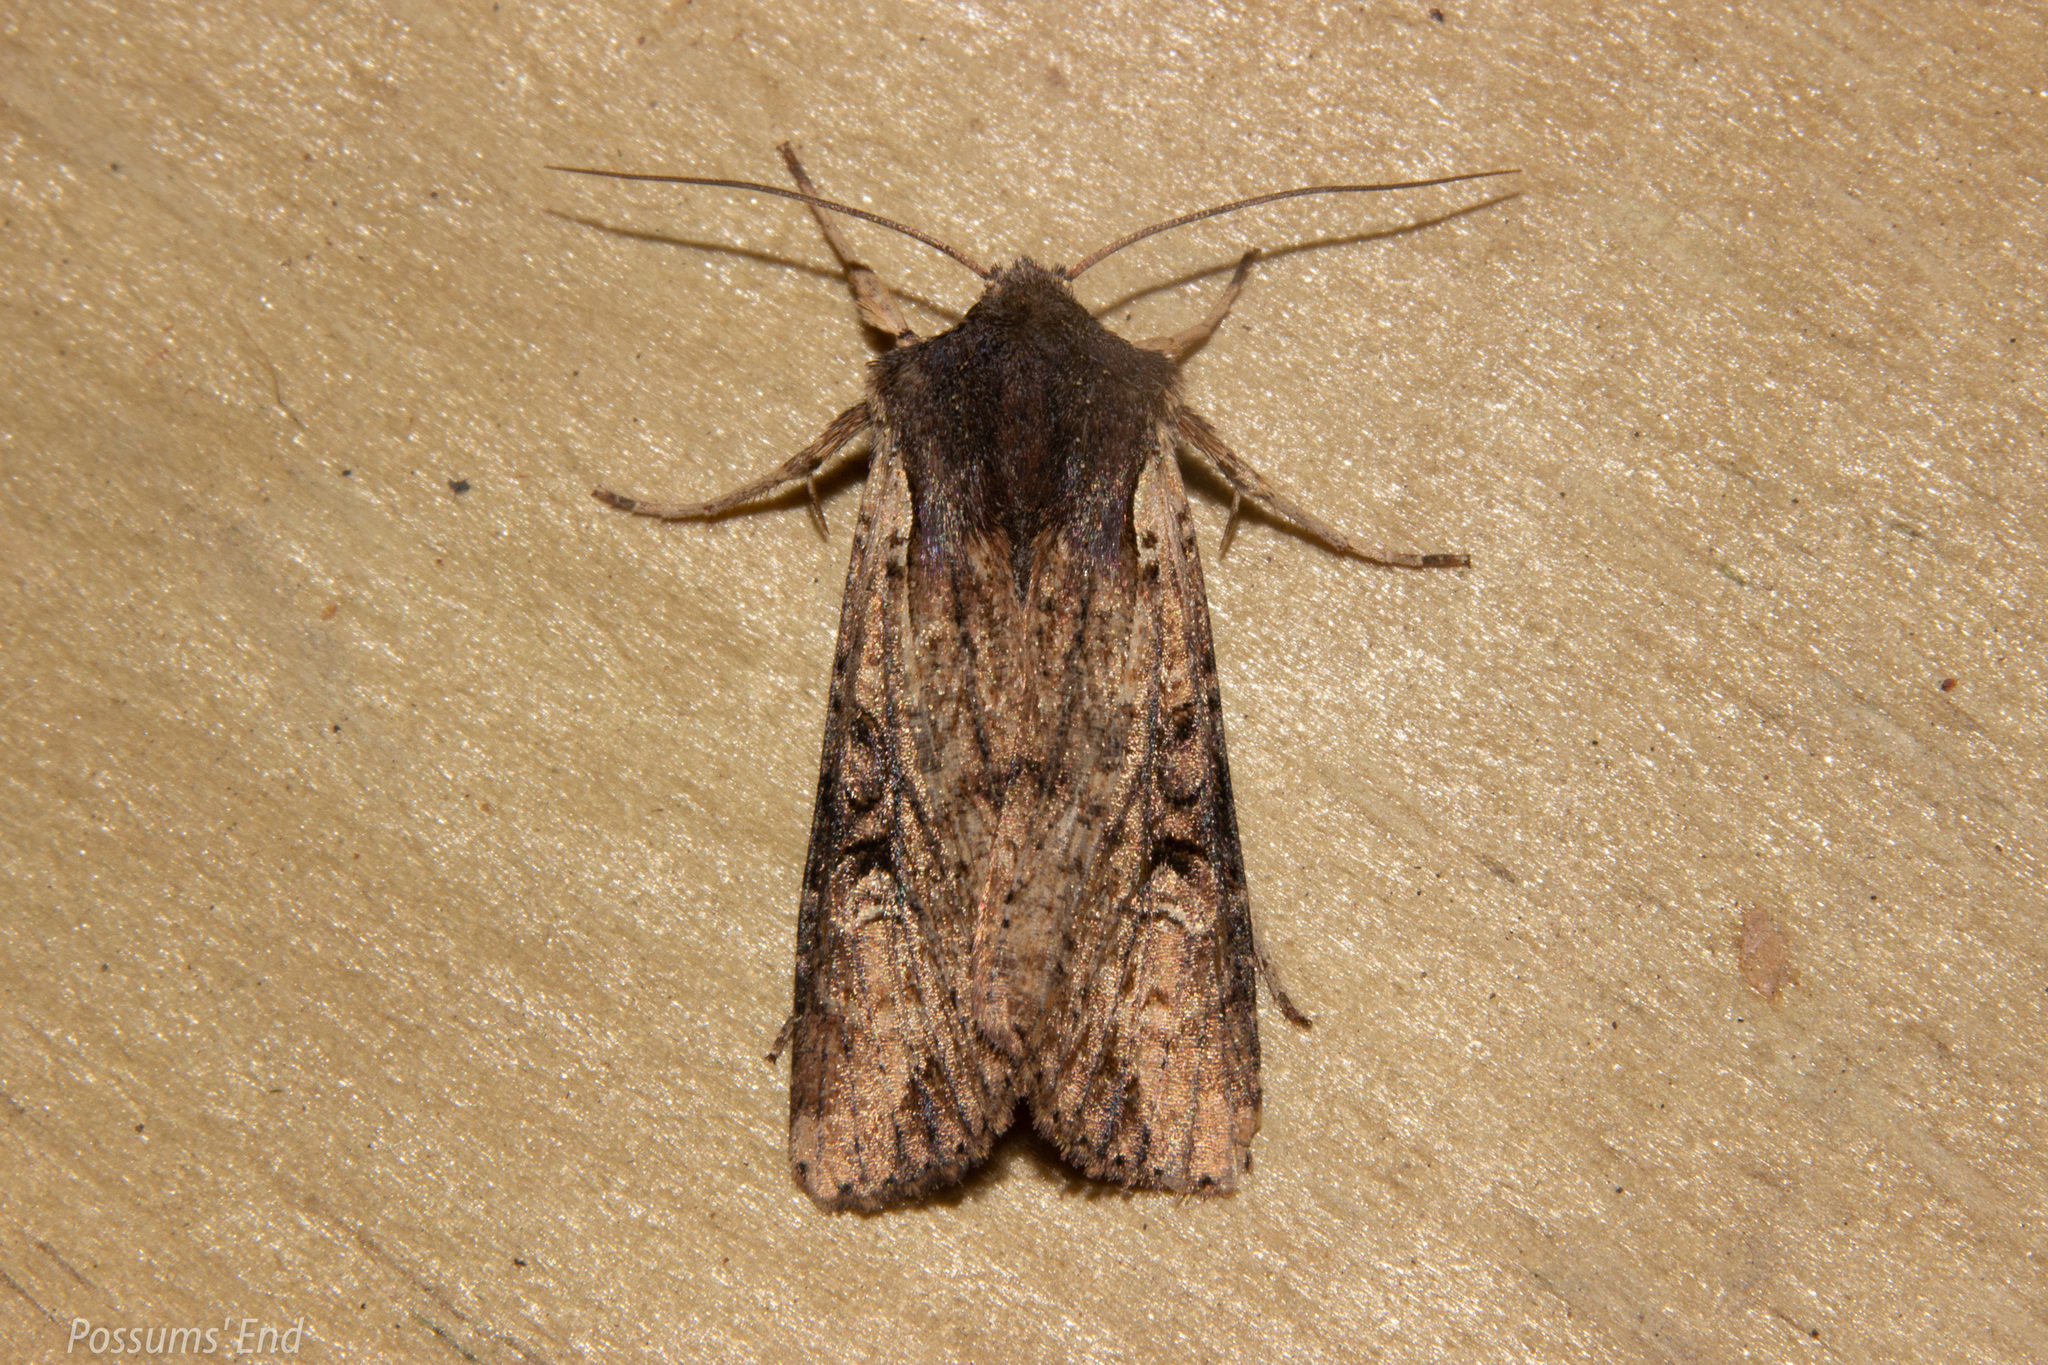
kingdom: Animalia
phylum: Arthropoda
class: Insecta
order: Lepidoptera
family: Noctuidae
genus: Ichneutica
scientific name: Ichneutica omoplaca
